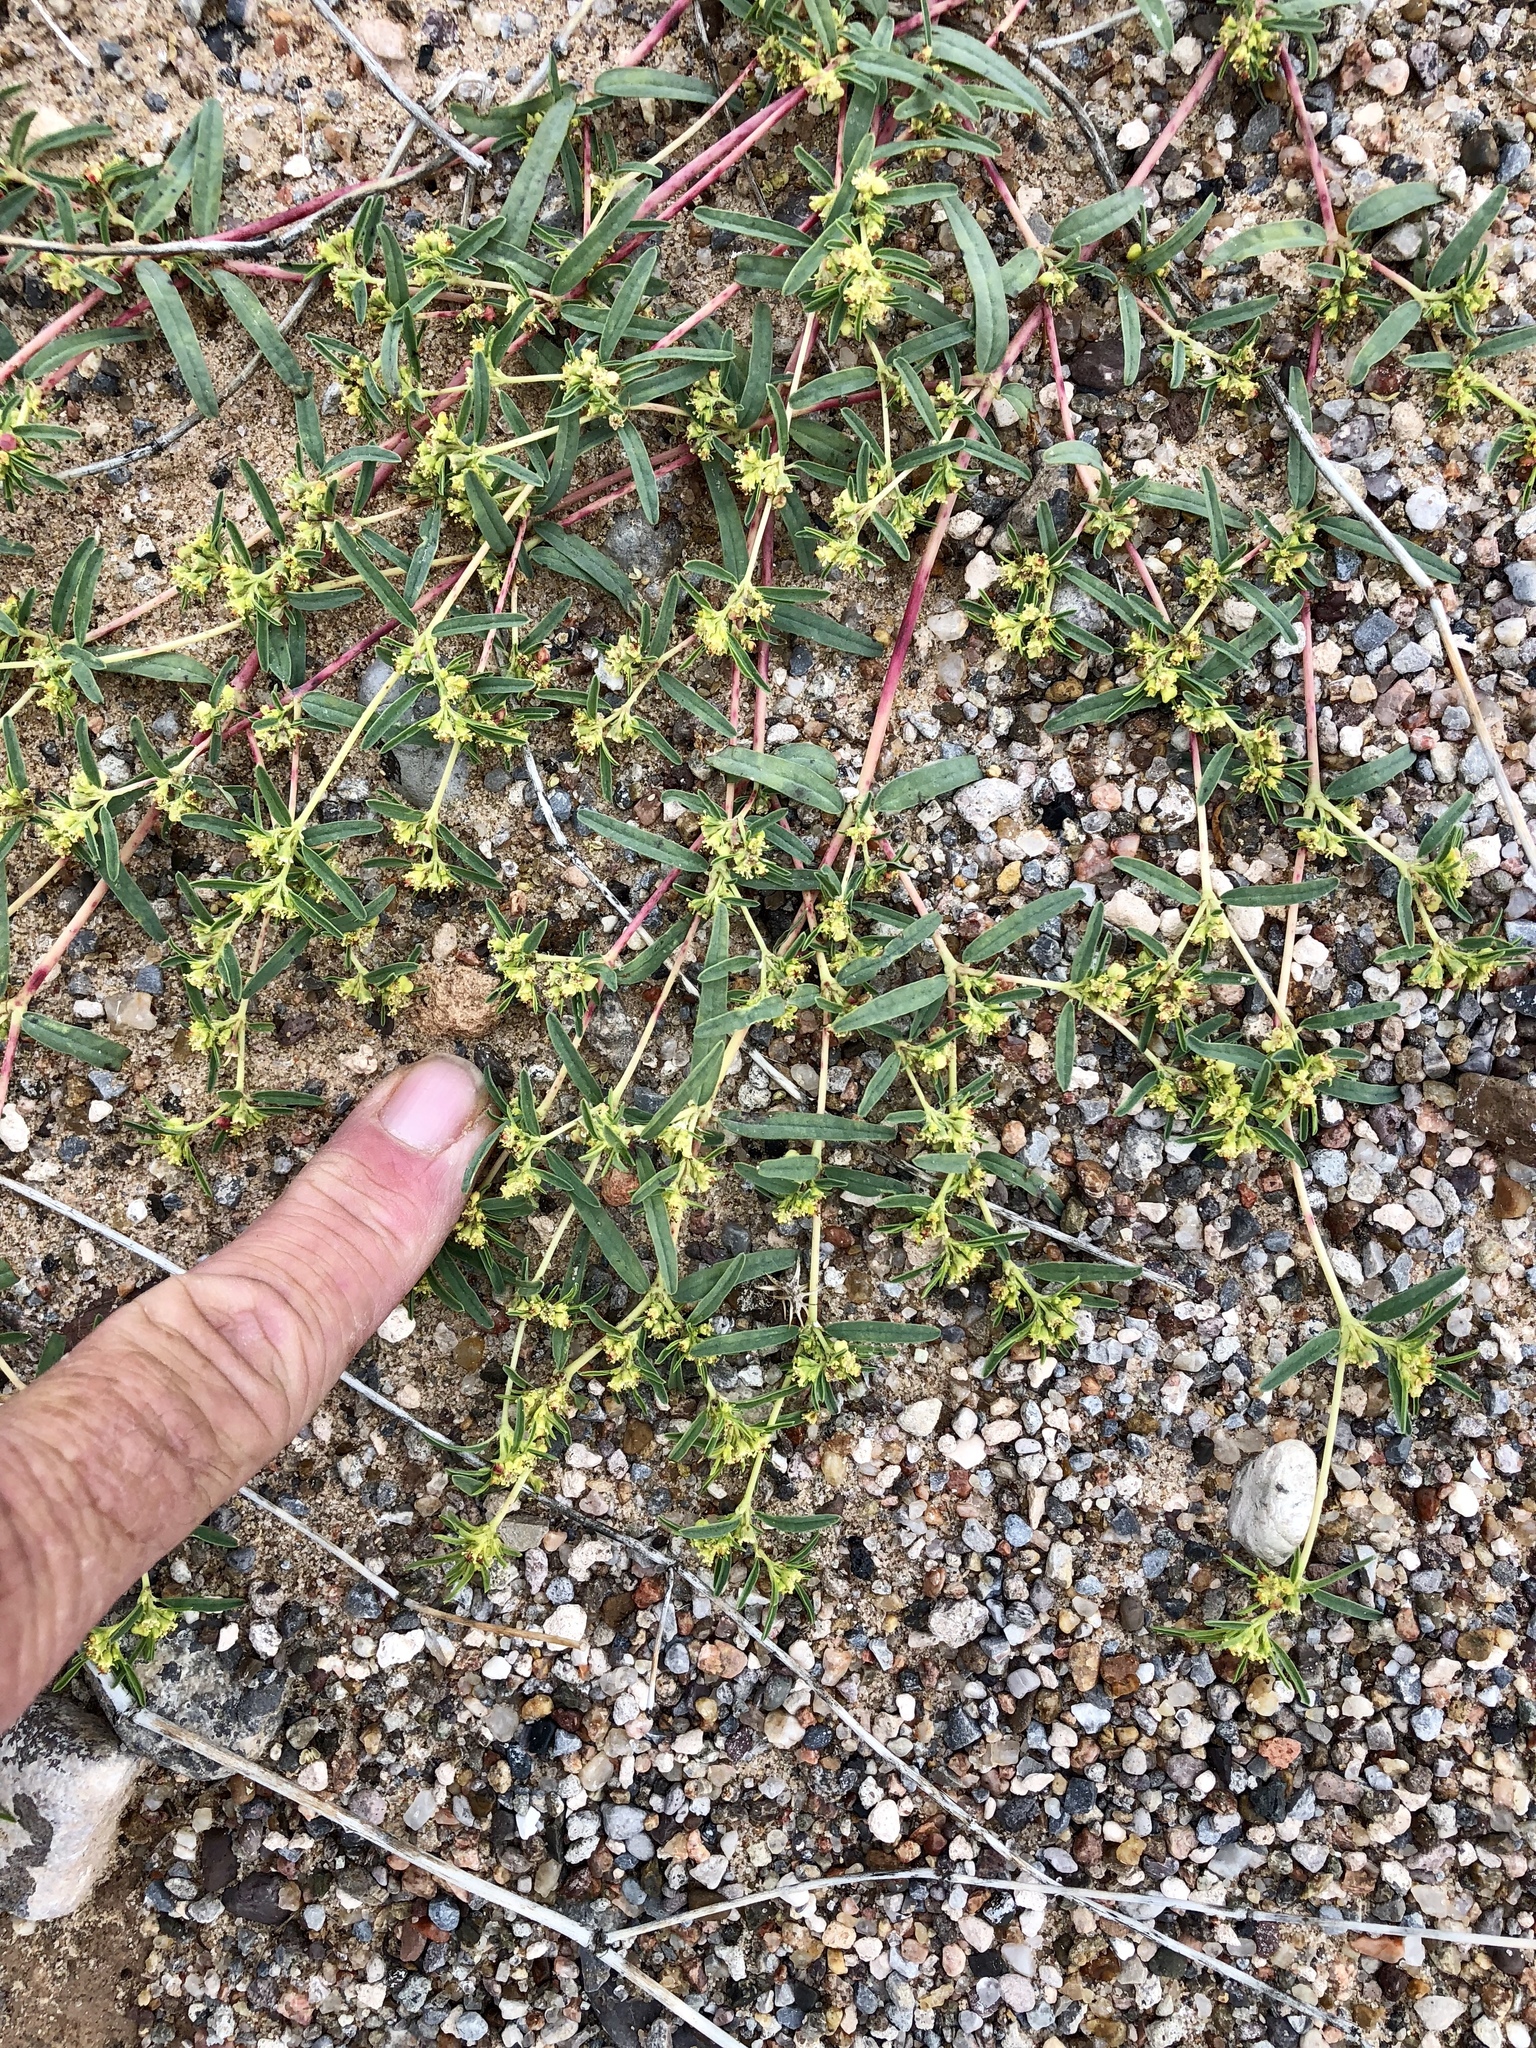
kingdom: Plantae
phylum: Tracheophyta
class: Magnoliopsida
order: Malpighiales
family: Euphorbiaceae
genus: Euphorbia
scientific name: Euphorbia parryi
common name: Dune spurge
